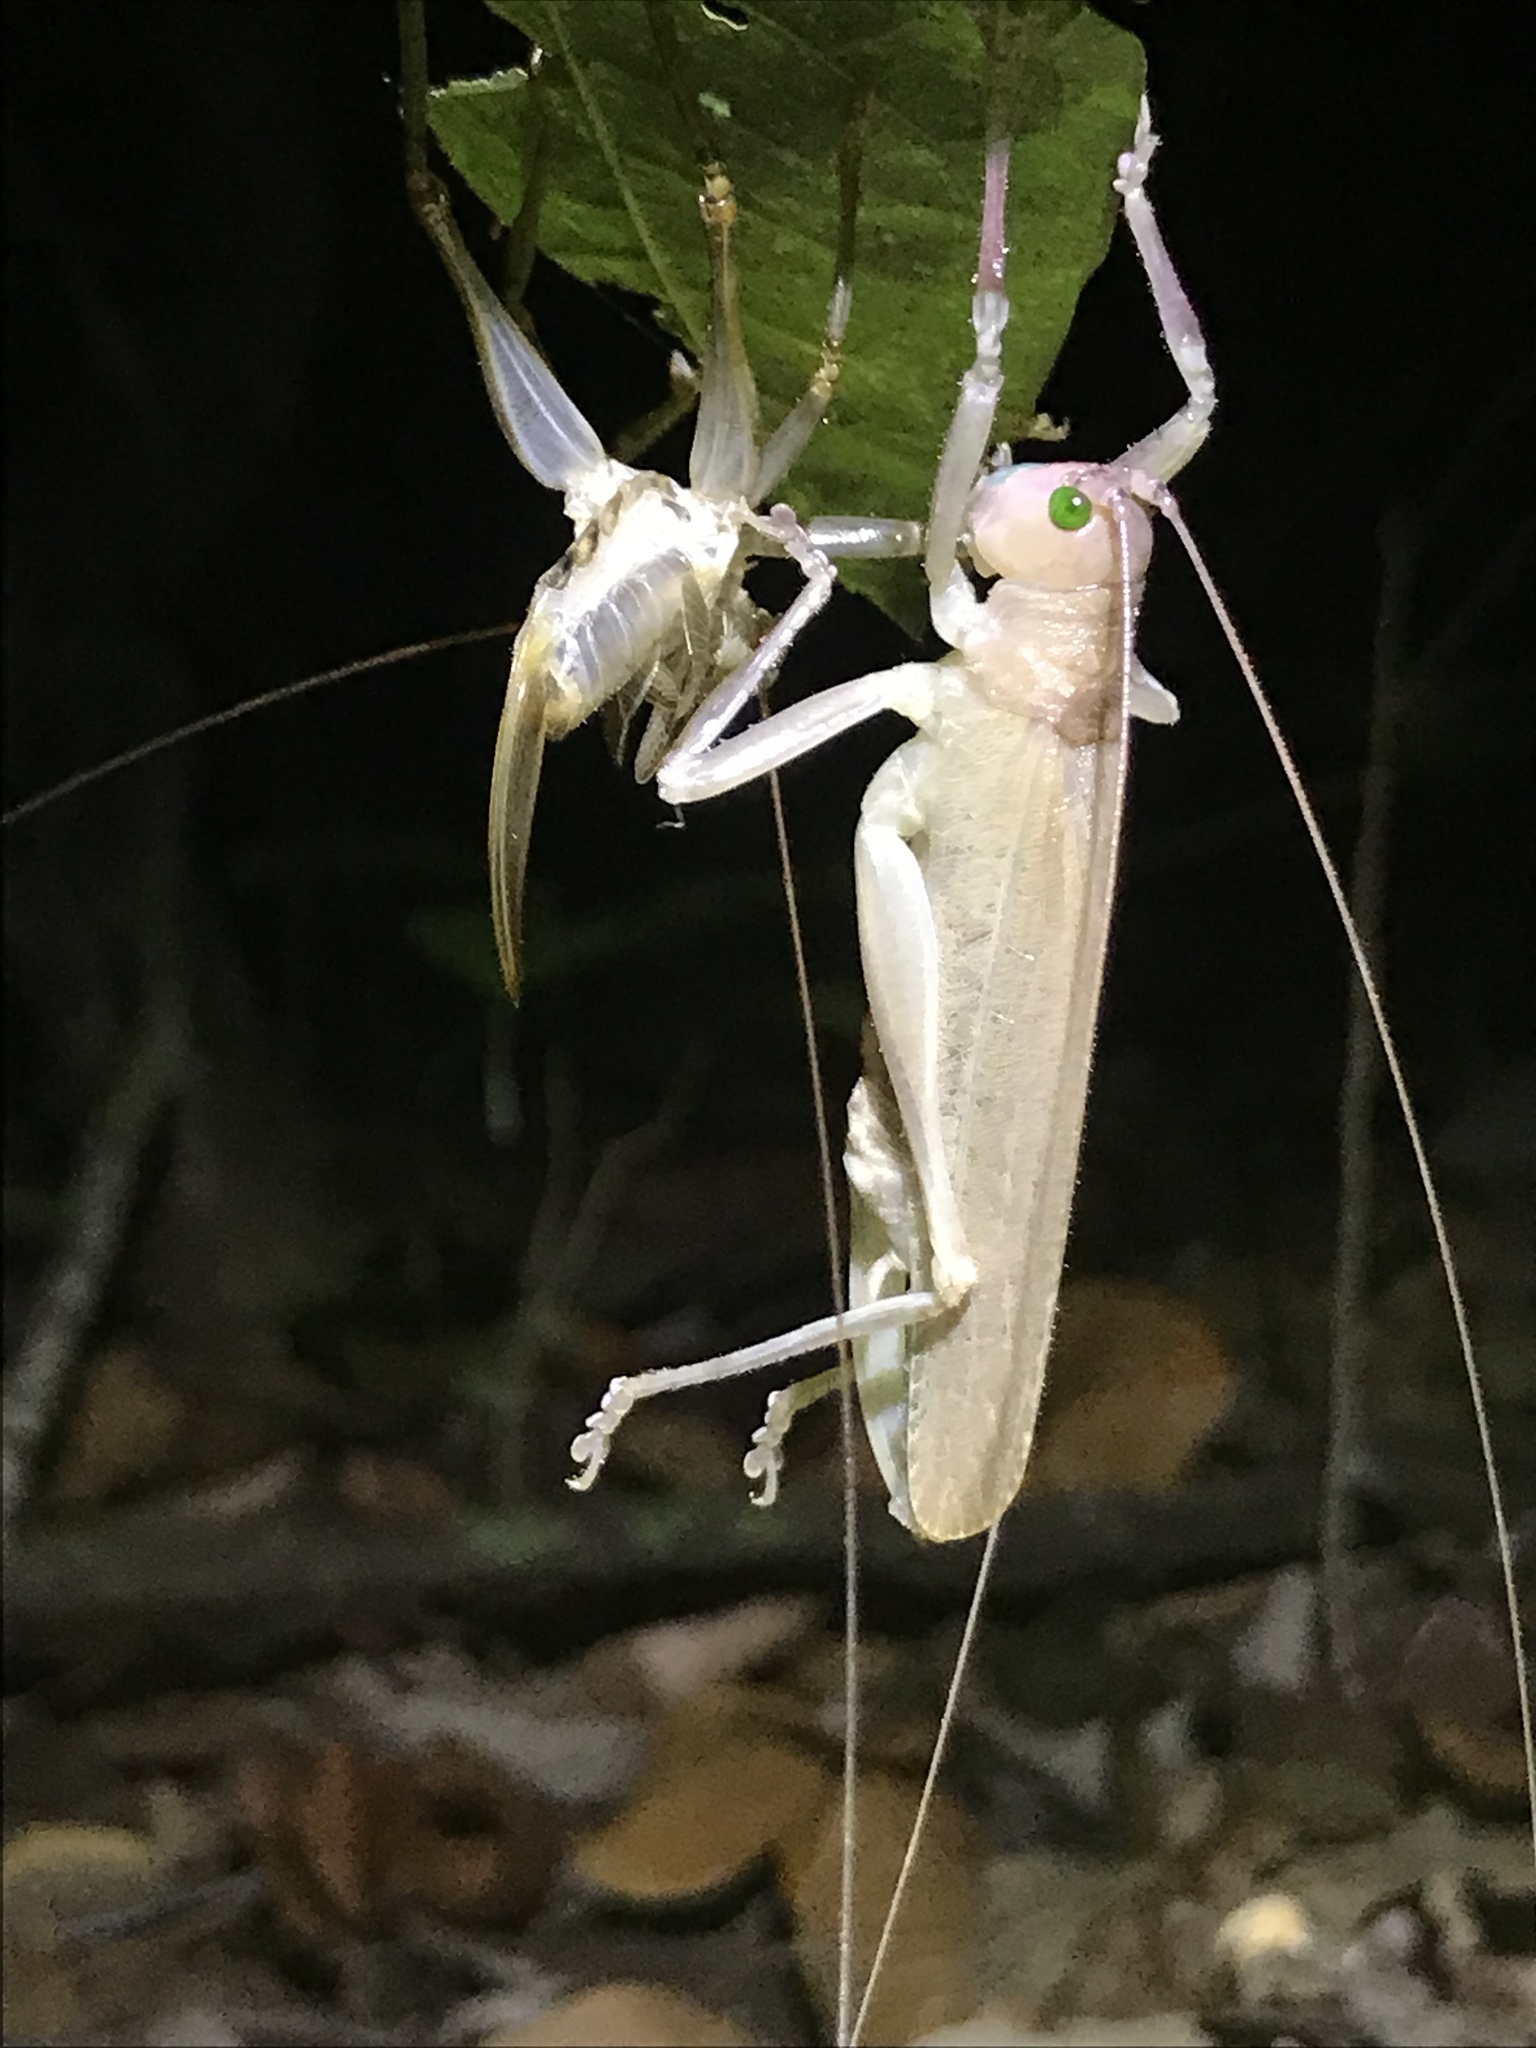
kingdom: Animalia
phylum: Arthropoda
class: Insecta
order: Orthoptera
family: Tettigoniidae
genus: Eubliastes
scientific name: Eubliastes pollonerae
